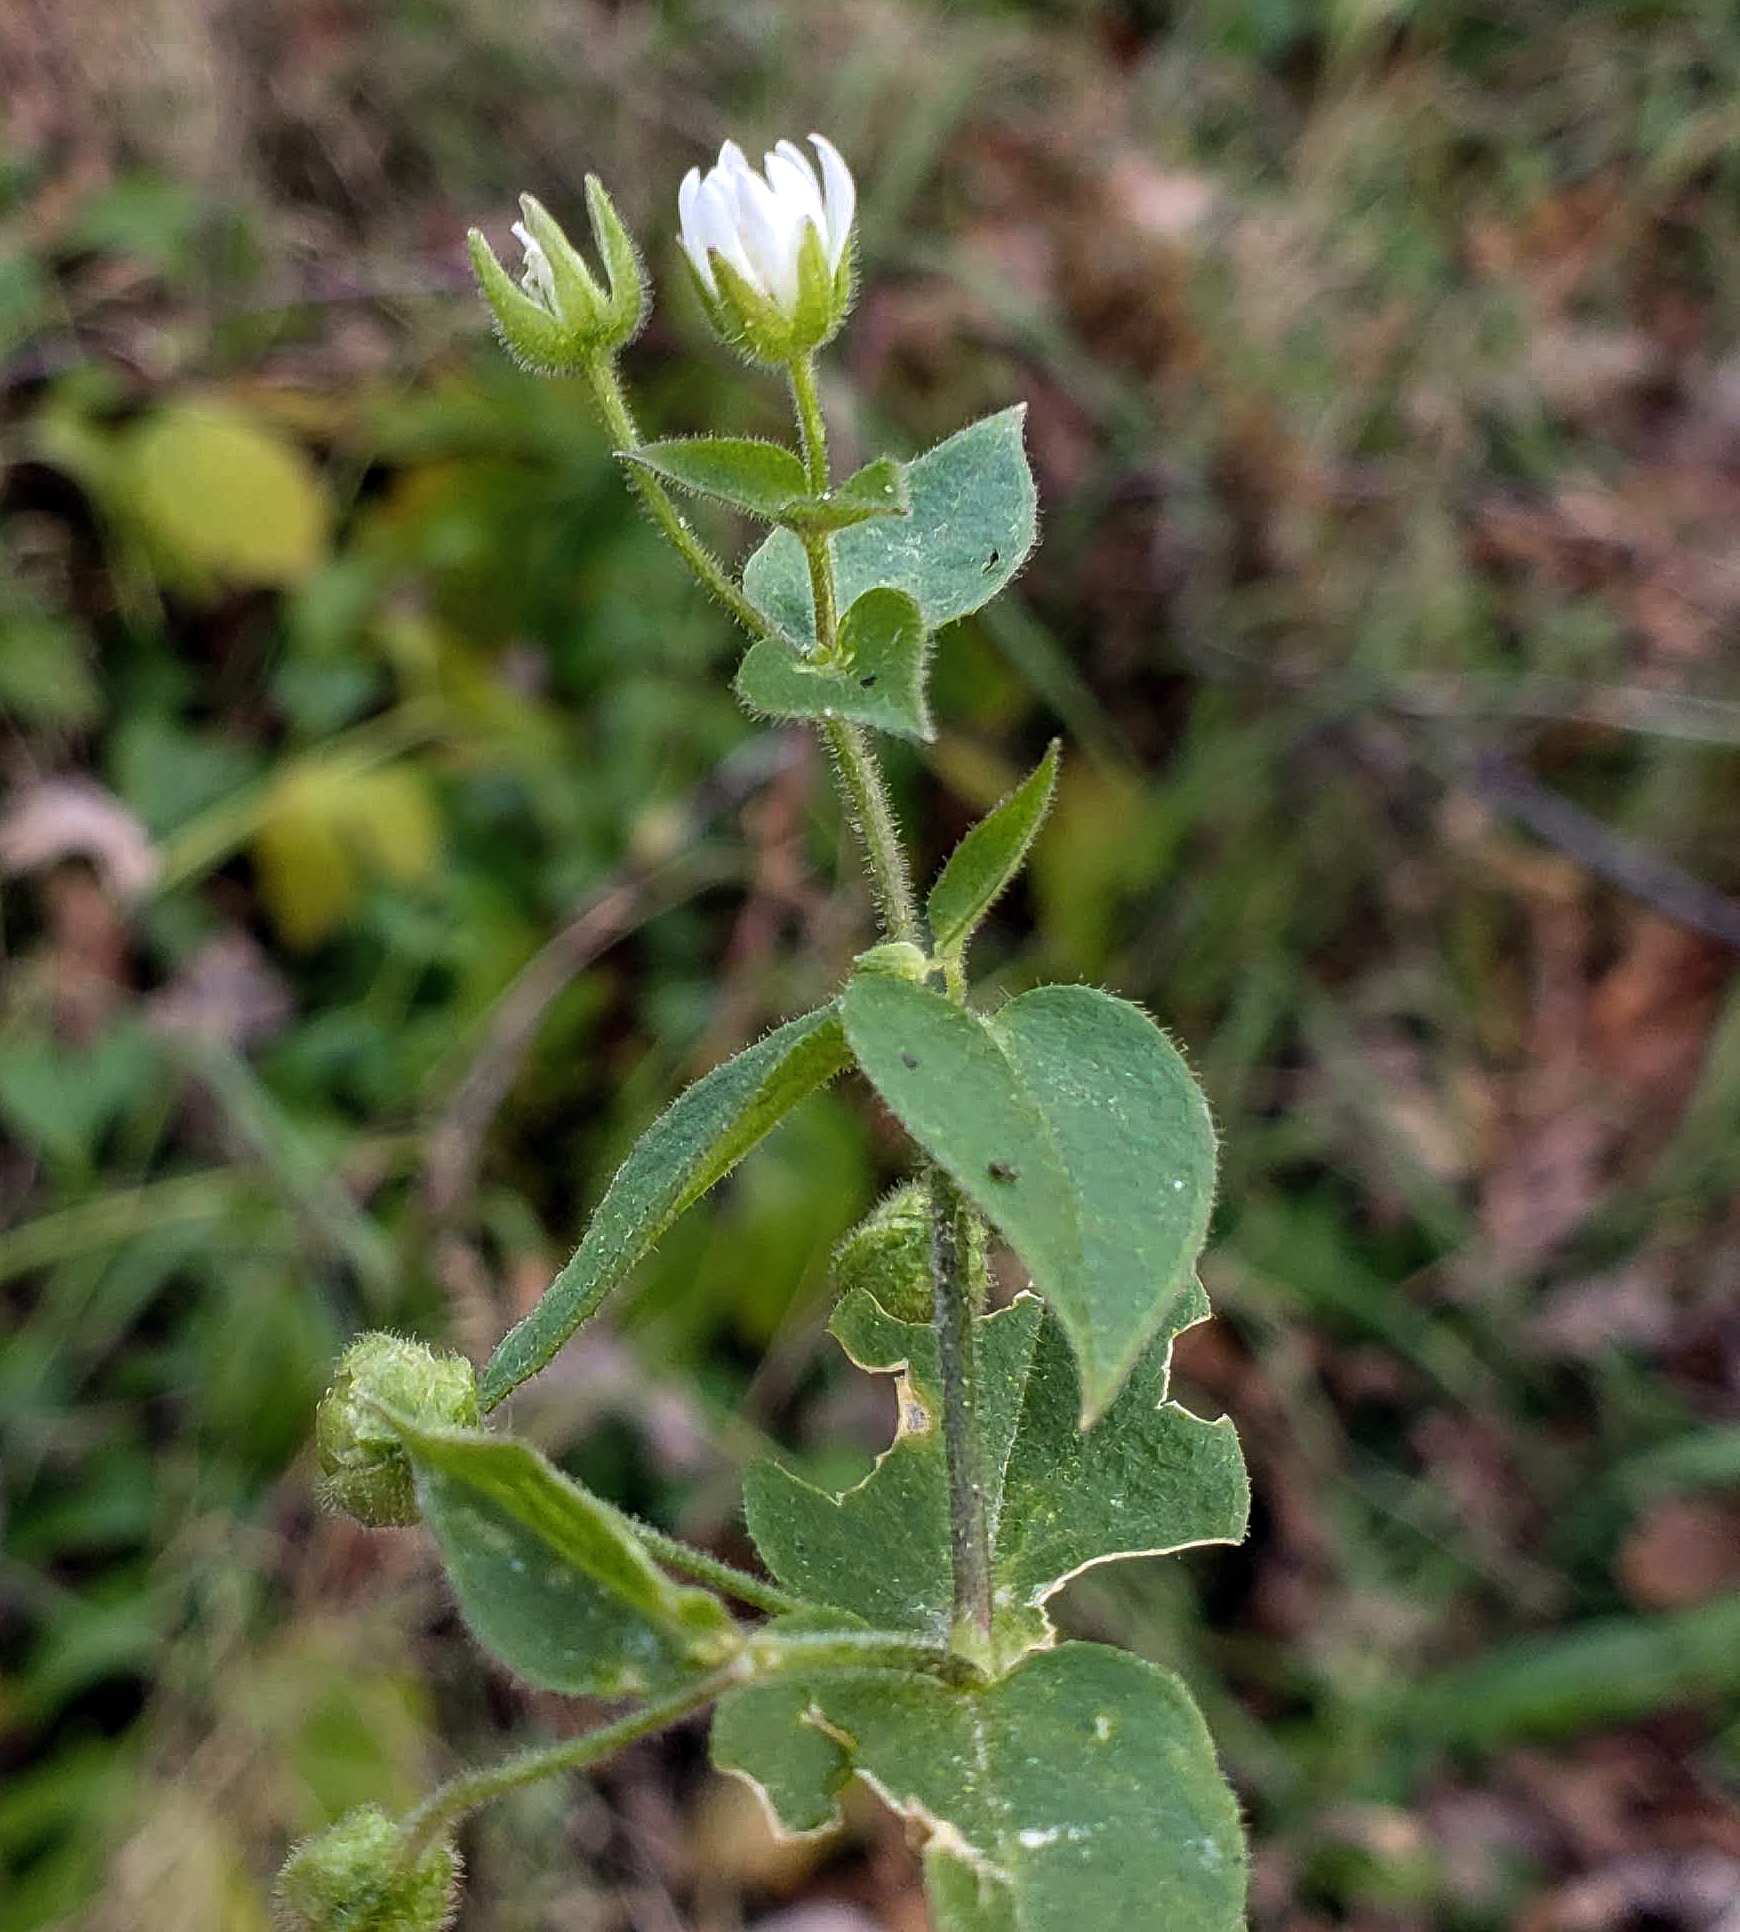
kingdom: Plantae
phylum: Tracheophyta
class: Magnoliopsida
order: Caryophyllales
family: Caryophyllaceae
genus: Stellaria
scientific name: Stellaria aquatica
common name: Water chickweed
